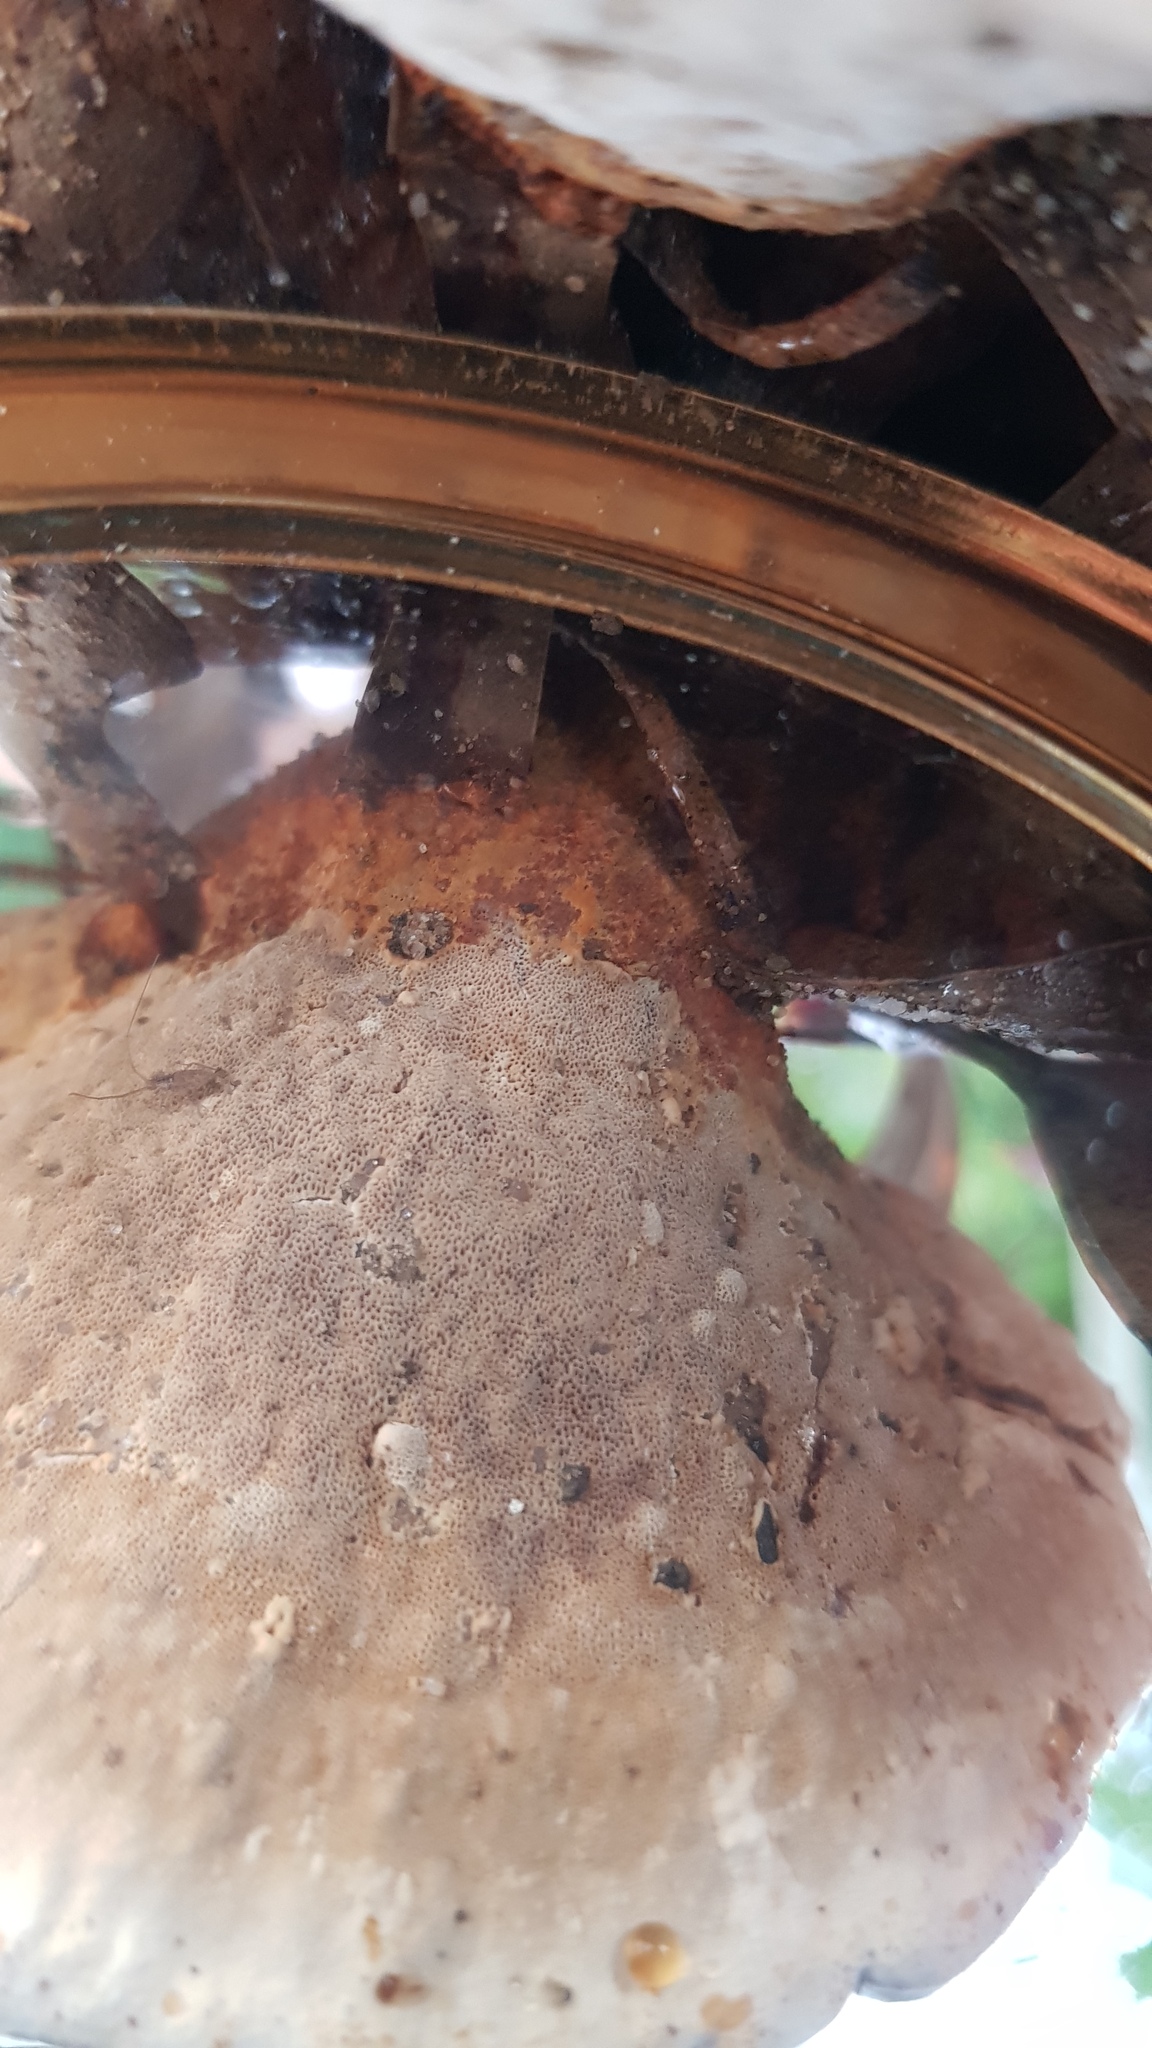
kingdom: Fungi
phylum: Basidiomycota
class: Agaricomycetes
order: Hymenochaetales
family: Hymenochaetaceae
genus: Inonotus
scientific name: Inonotus albertinii
